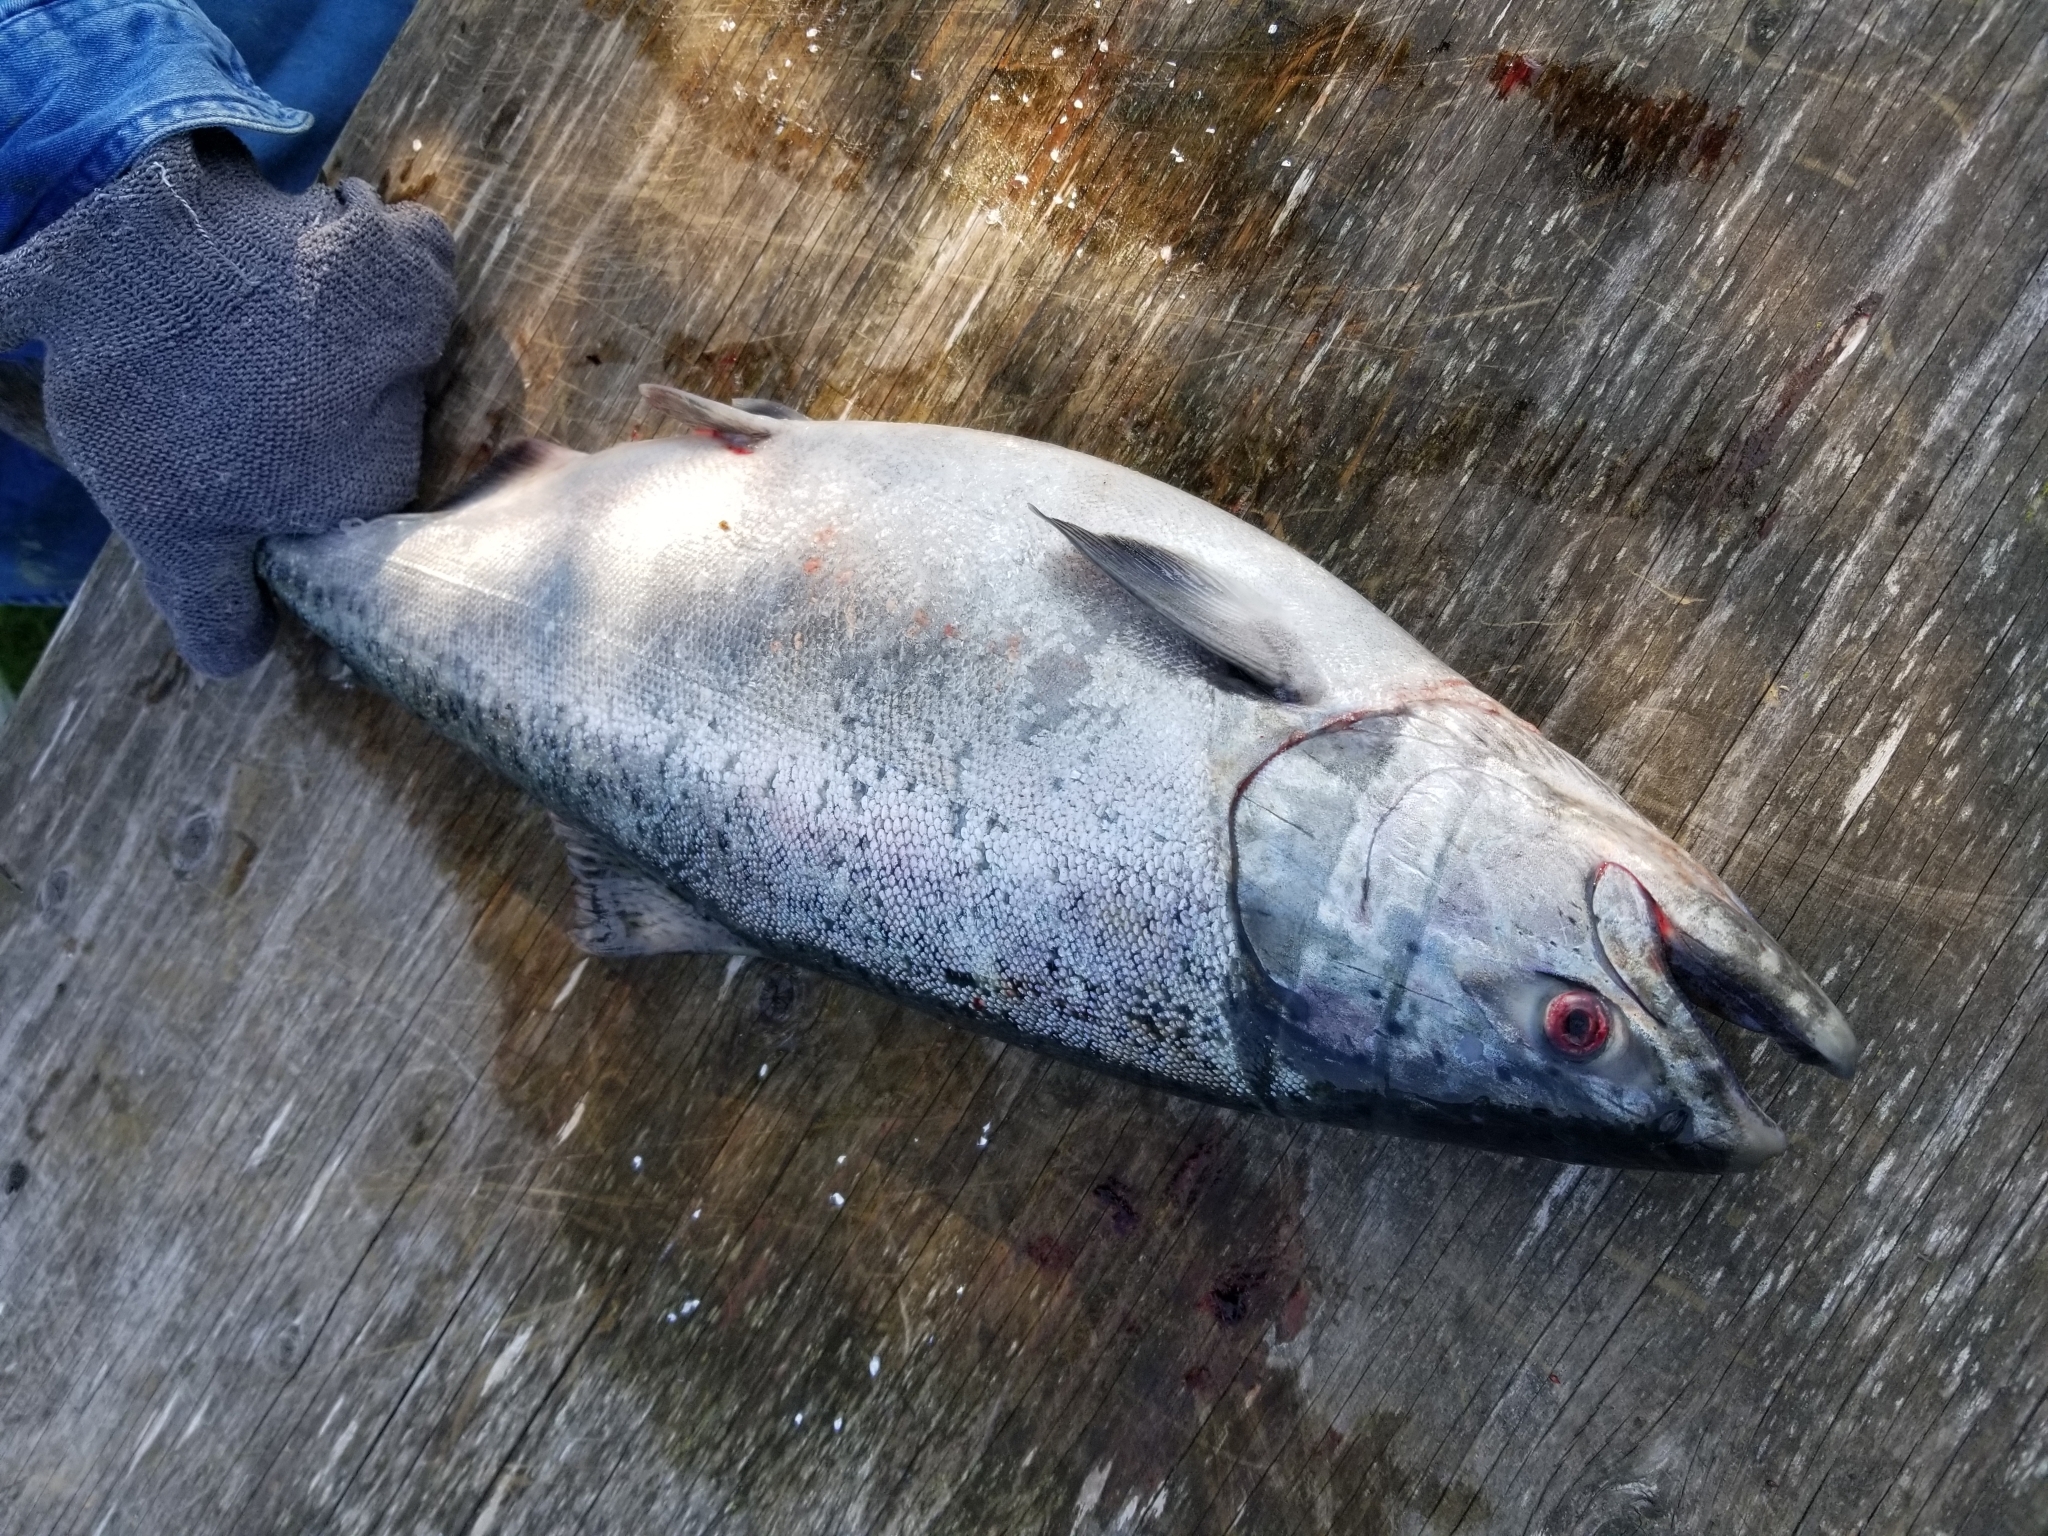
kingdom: Animalia
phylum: Chordata
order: Salmoniformes
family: Salmonidae
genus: Oncorhynchus
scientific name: Oncorhynchus tshawytscha
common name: Chinook salmon
